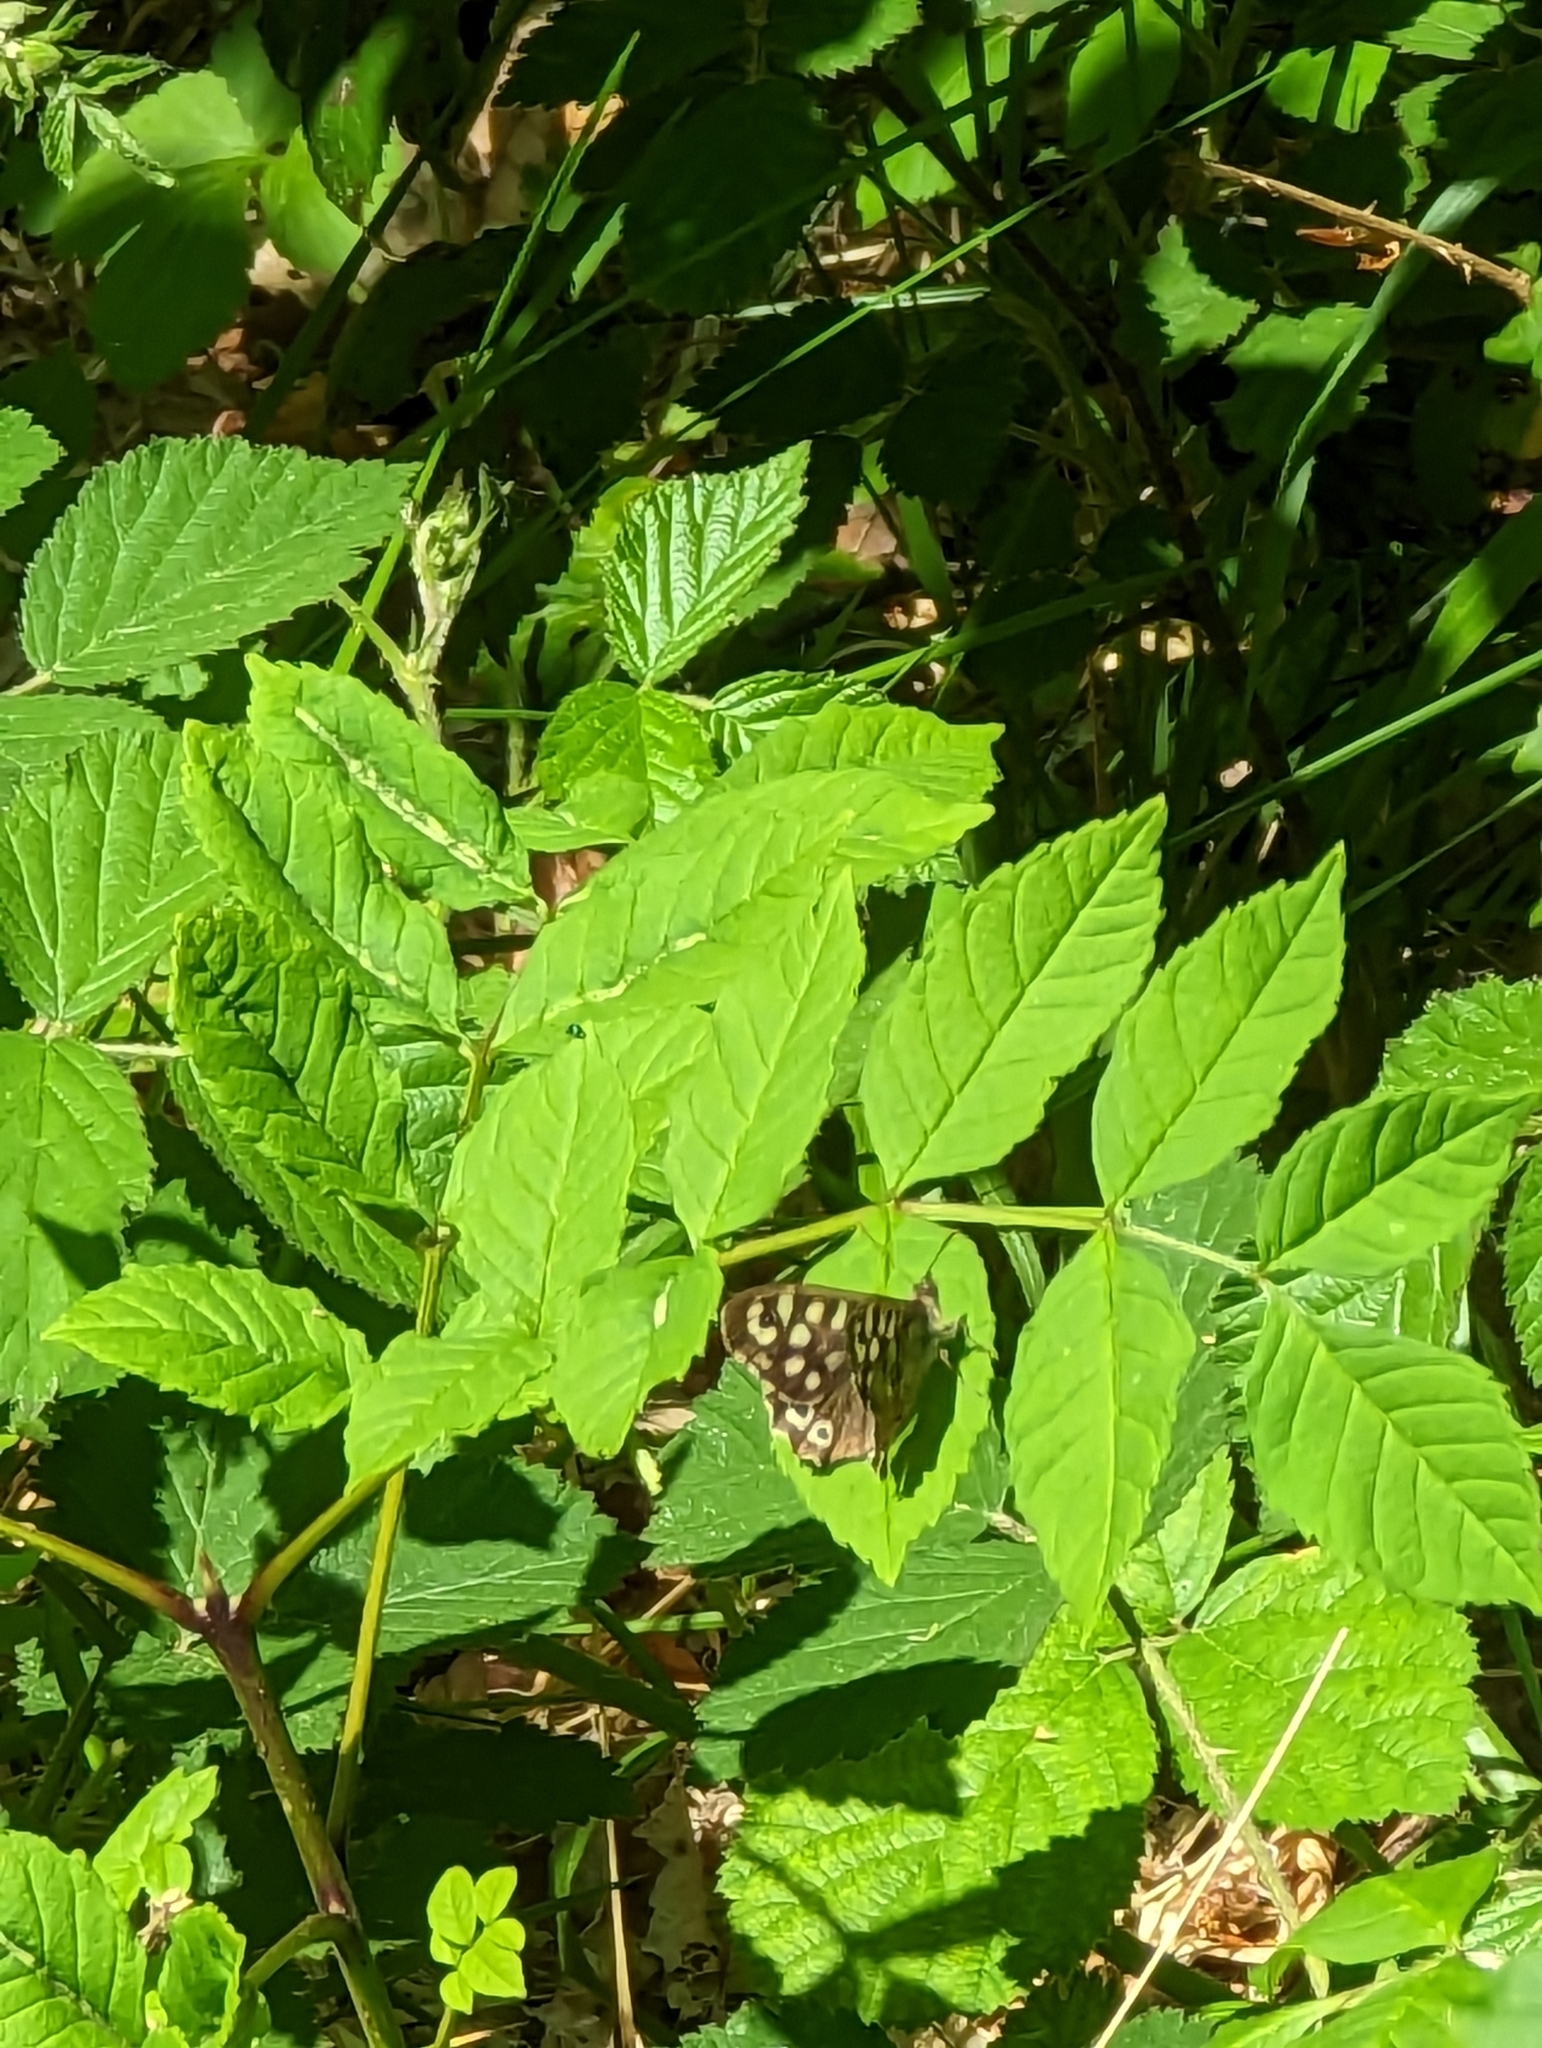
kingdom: Animalia
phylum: Arthropoda
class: Insecta
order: Lepidoptera
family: Nymphalidae
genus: Pararge
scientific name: Pararge aegeria
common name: Speckled wood
